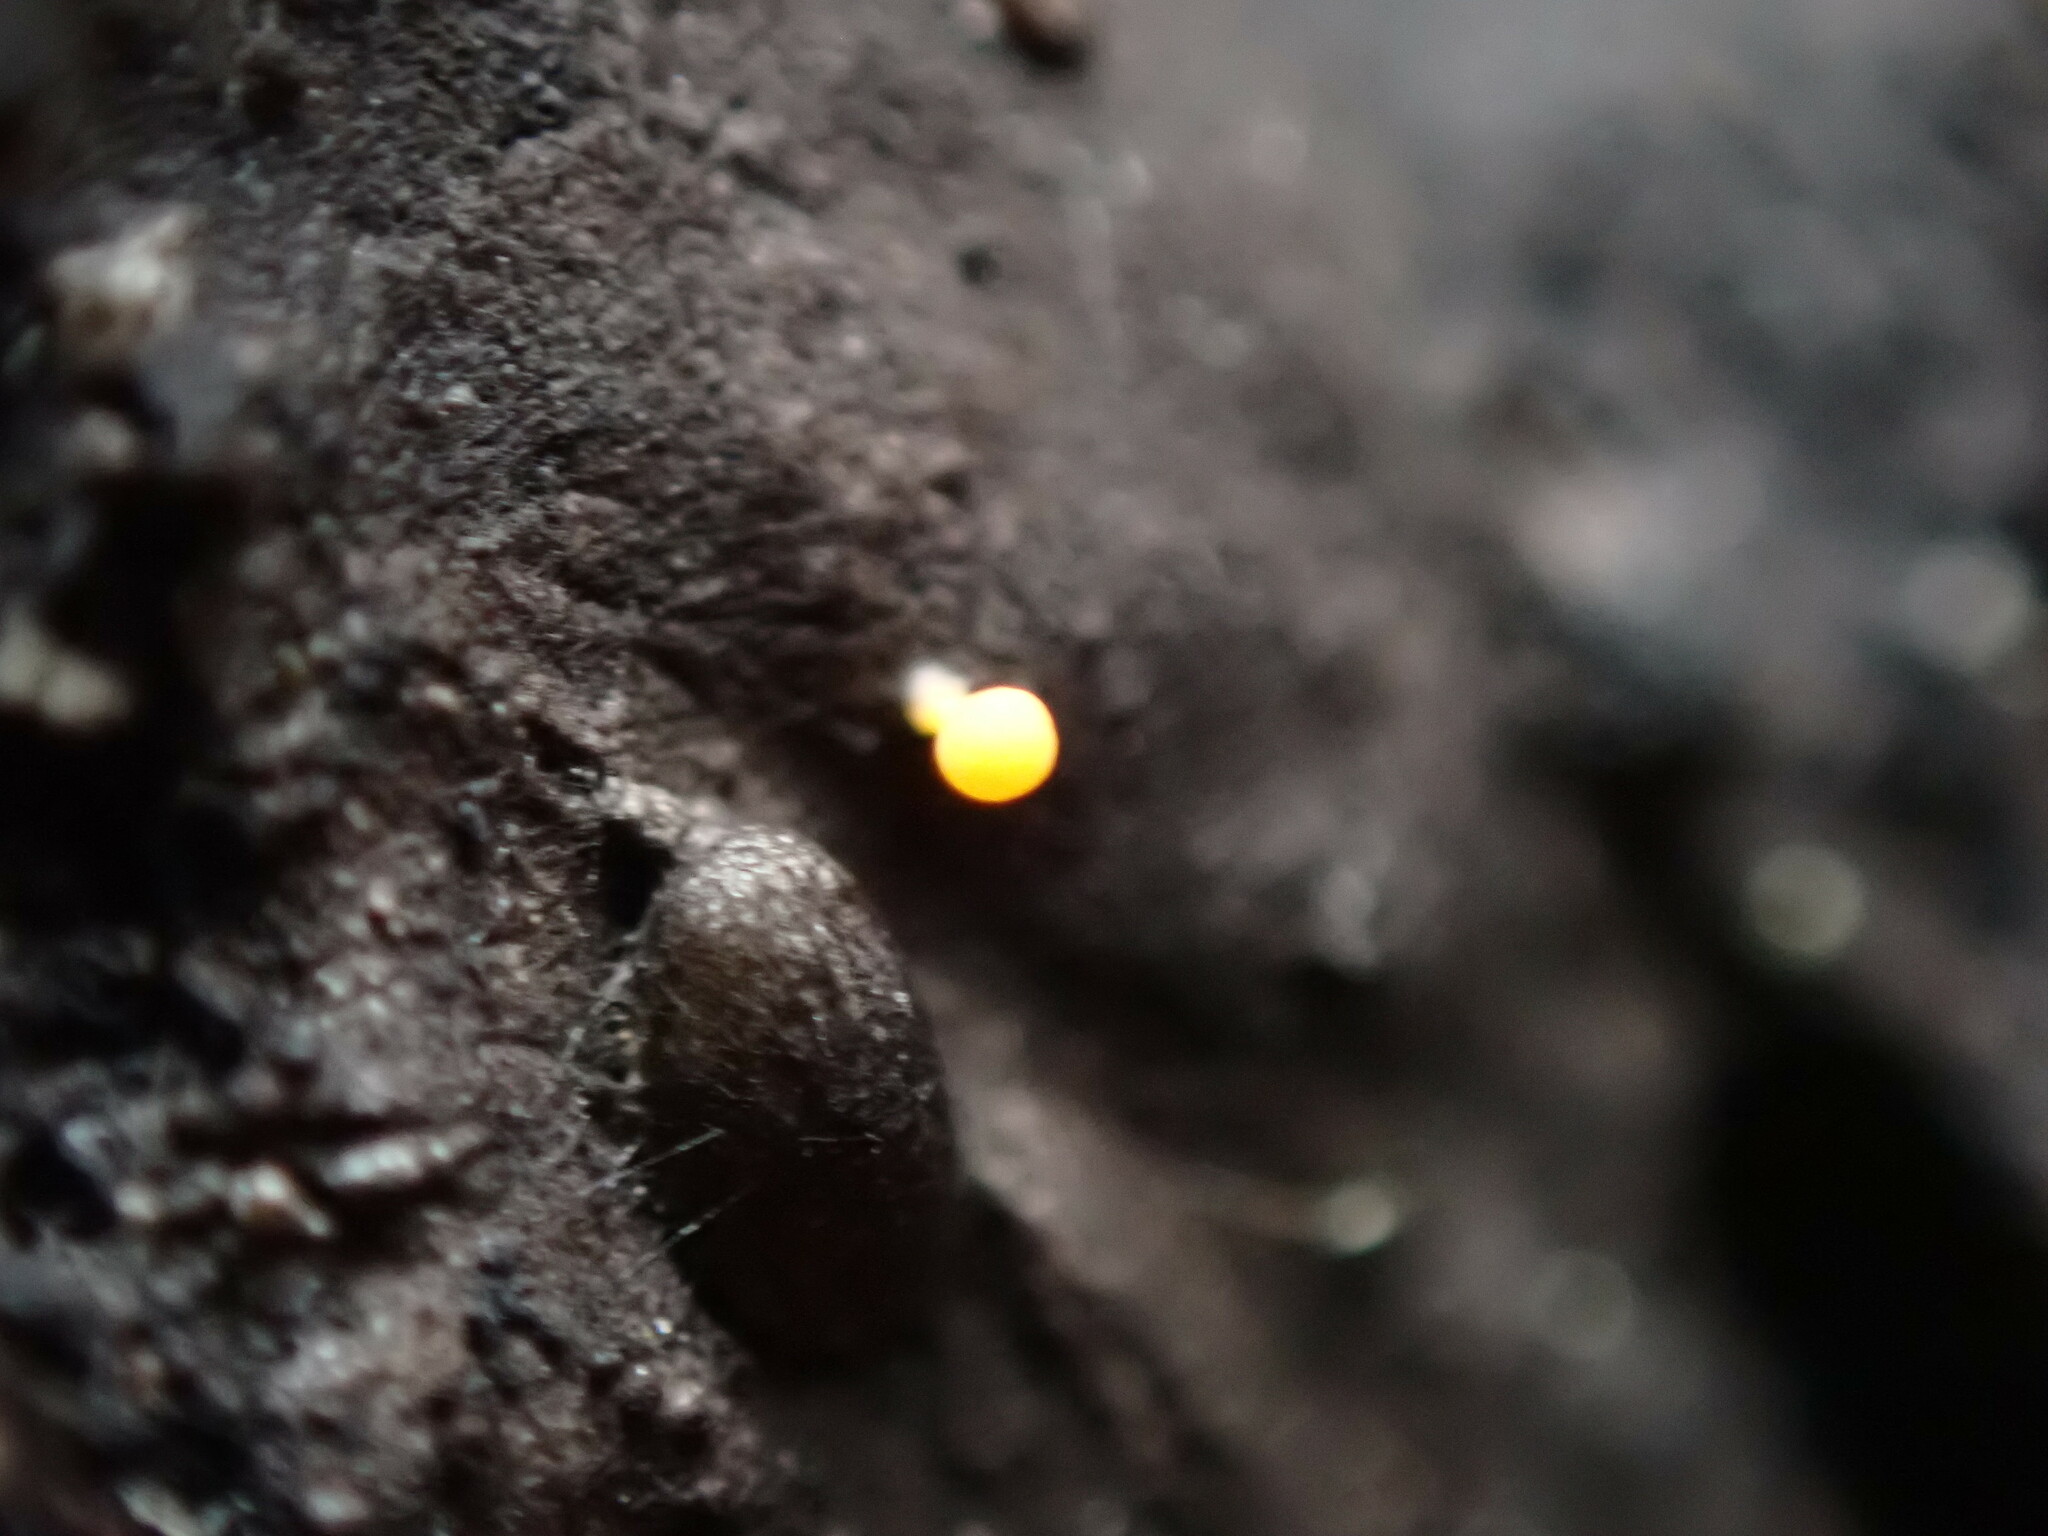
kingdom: Fungi
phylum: Ascomycota
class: Leotiomycetes
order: Helotiales
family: Helotiaceae
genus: Bisporella
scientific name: Bisporella resinicola
